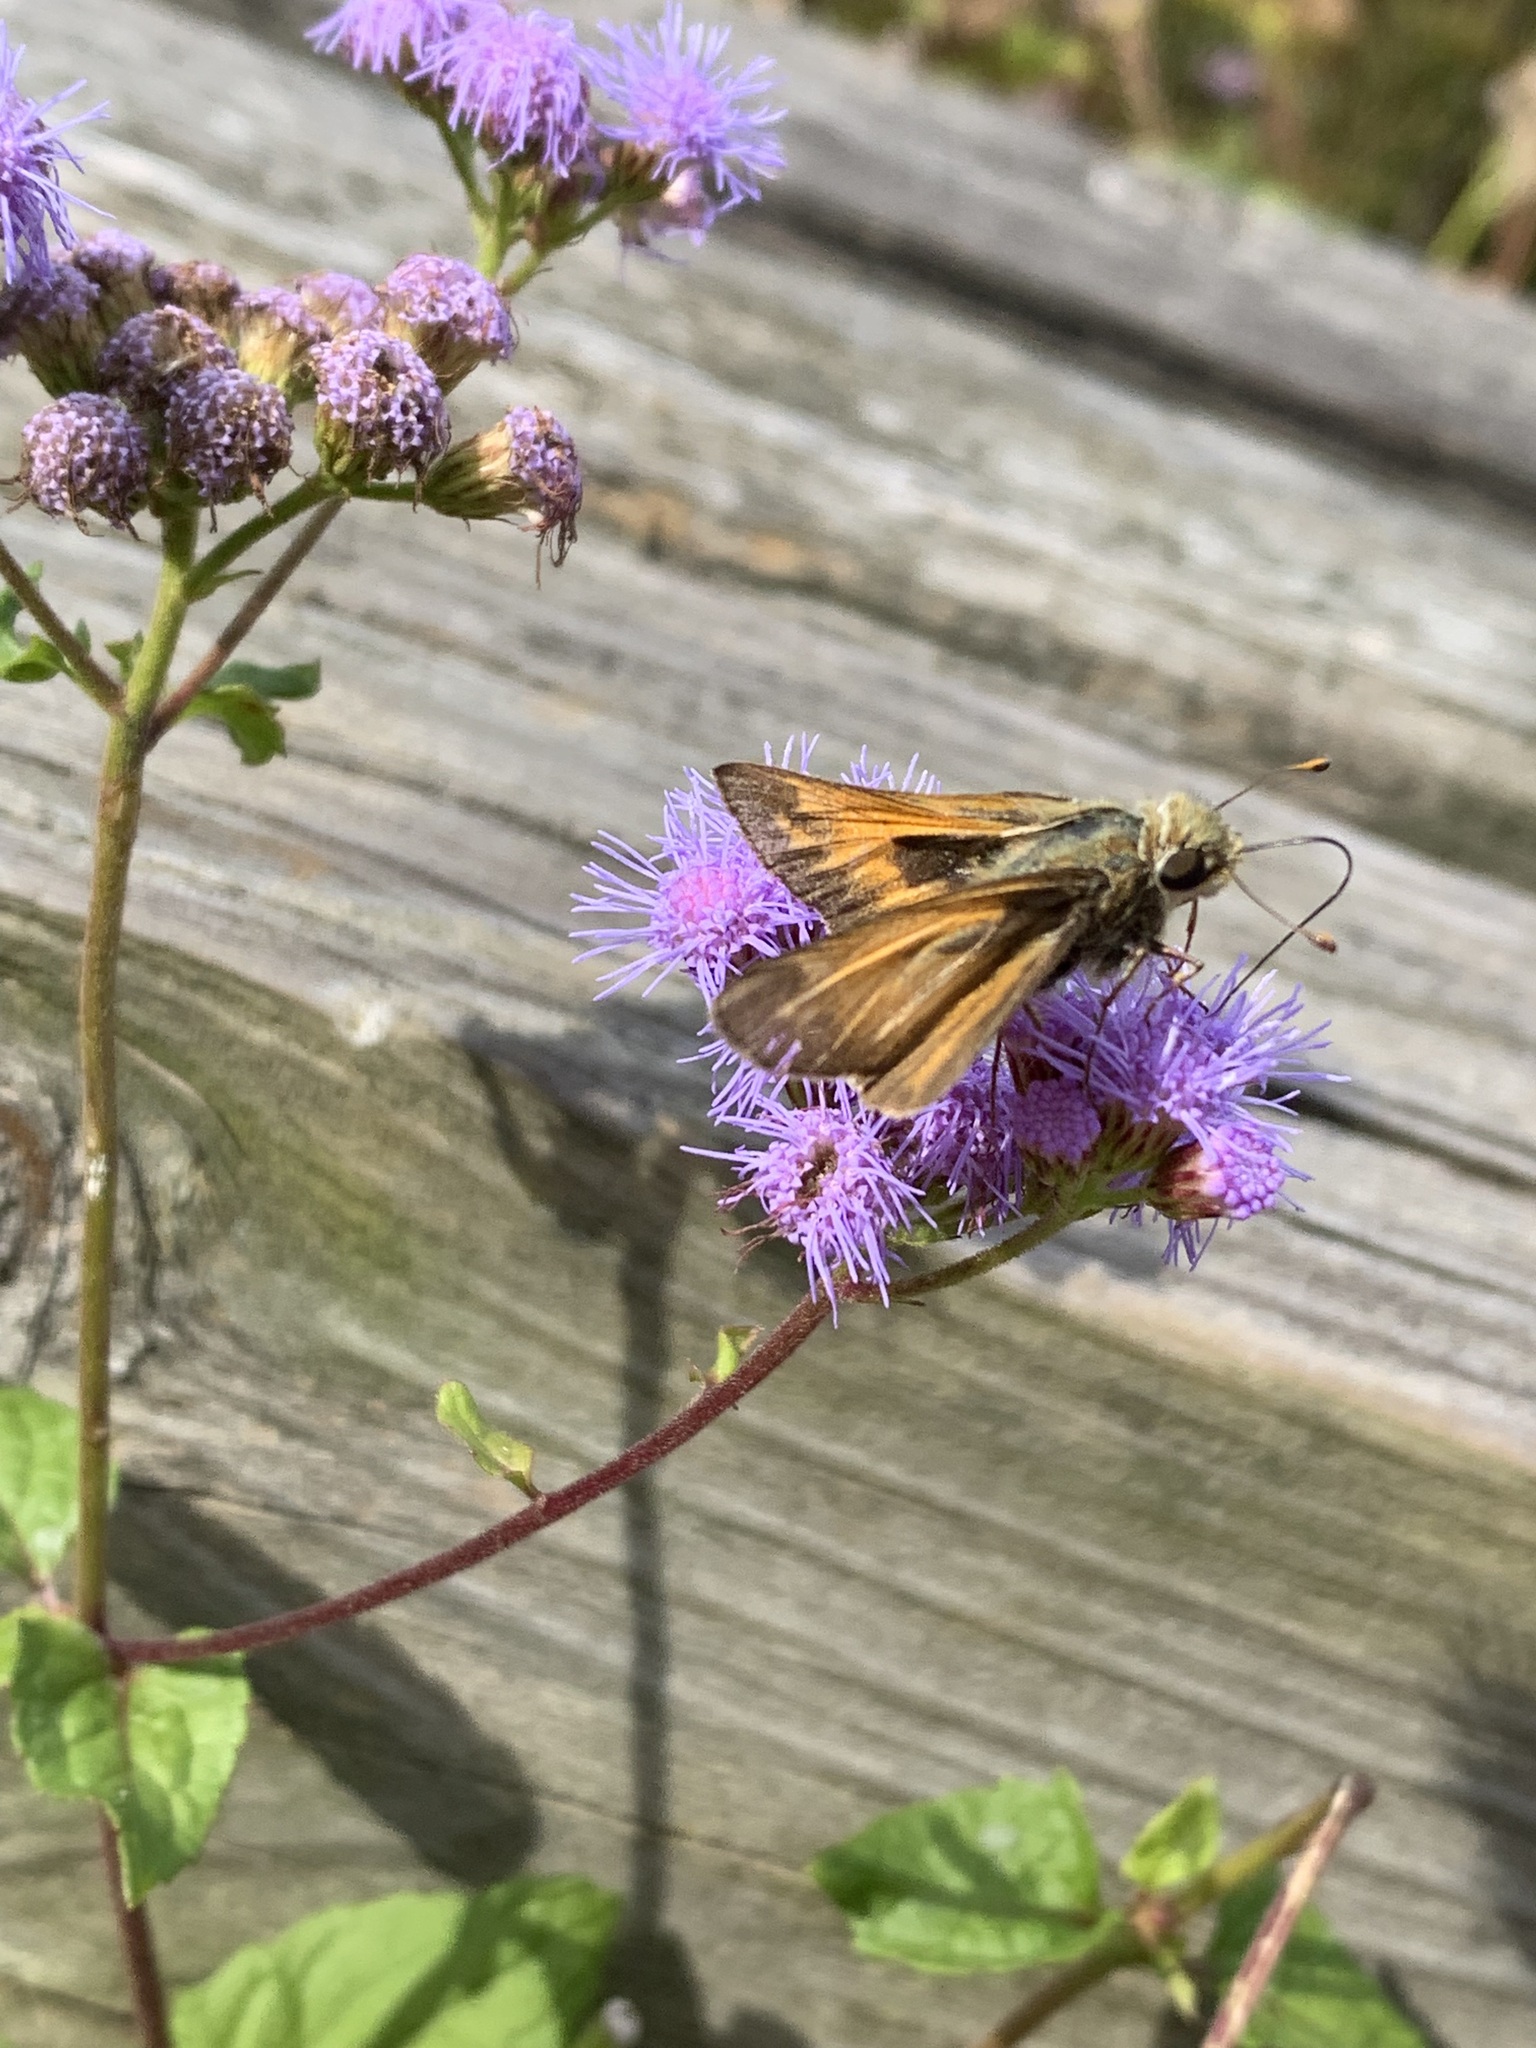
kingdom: Animalia
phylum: Arthropoda
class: Insecta
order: Lepidoptera
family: Hesperiidae
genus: Atalopedes
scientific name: Atalopedes
